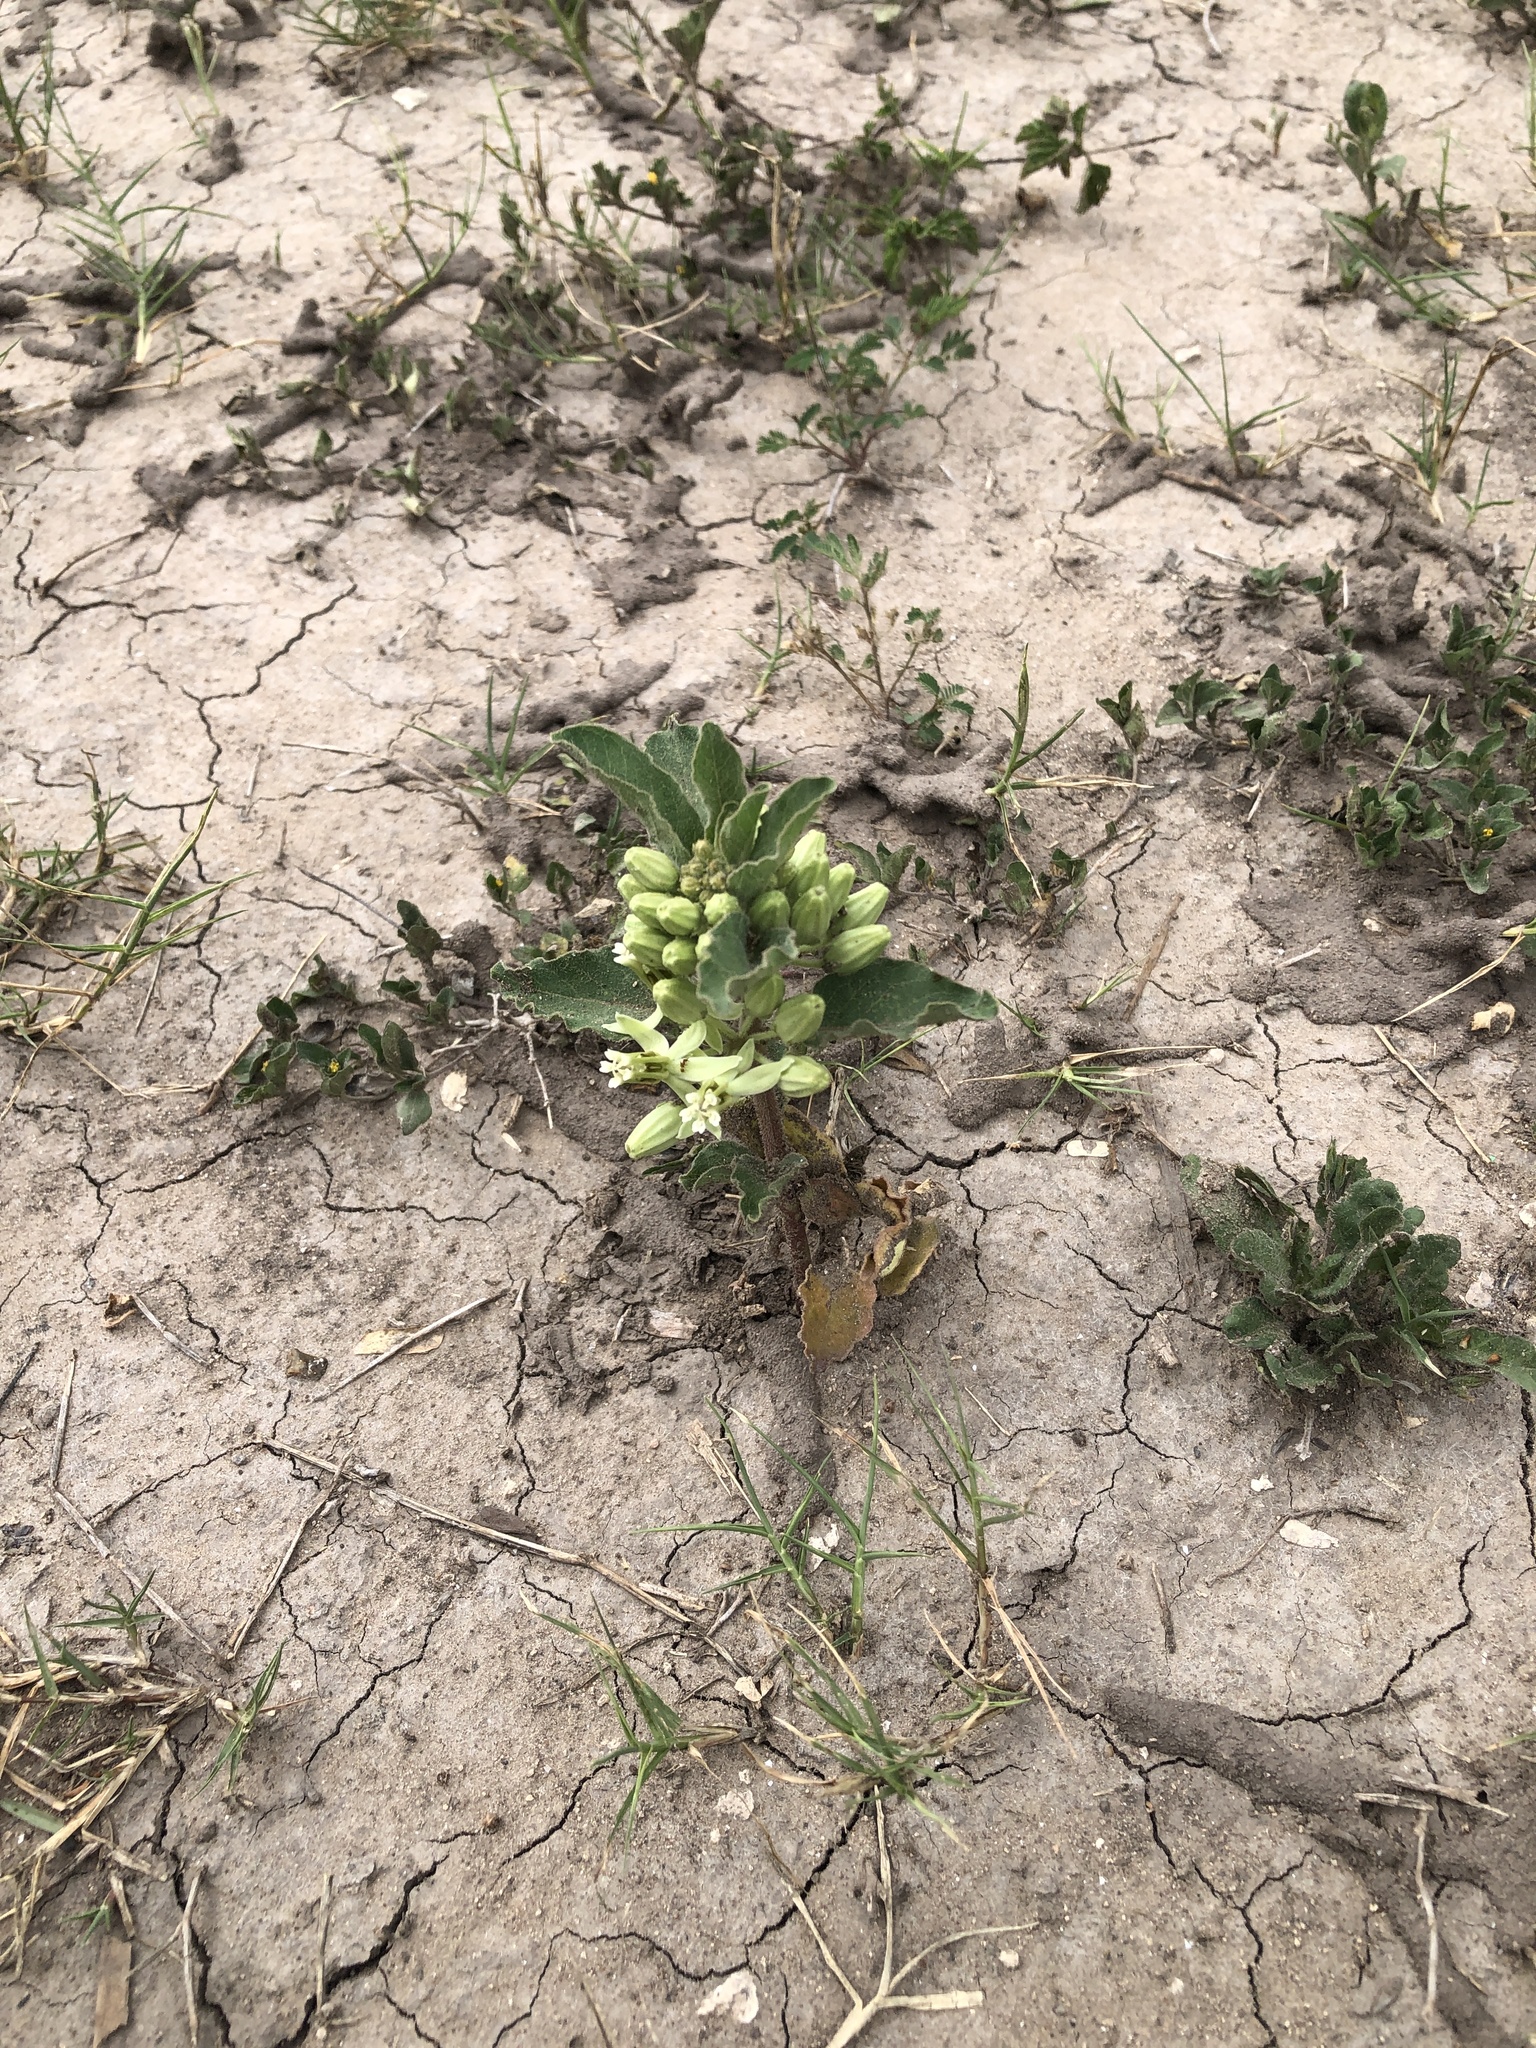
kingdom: Plantae
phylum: Tracheophyta
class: Magnoliopsida
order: Gentianales
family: Apocynaceae
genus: Asclepias
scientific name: Asclepias oenotheroides
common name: Zizotes milkweed
